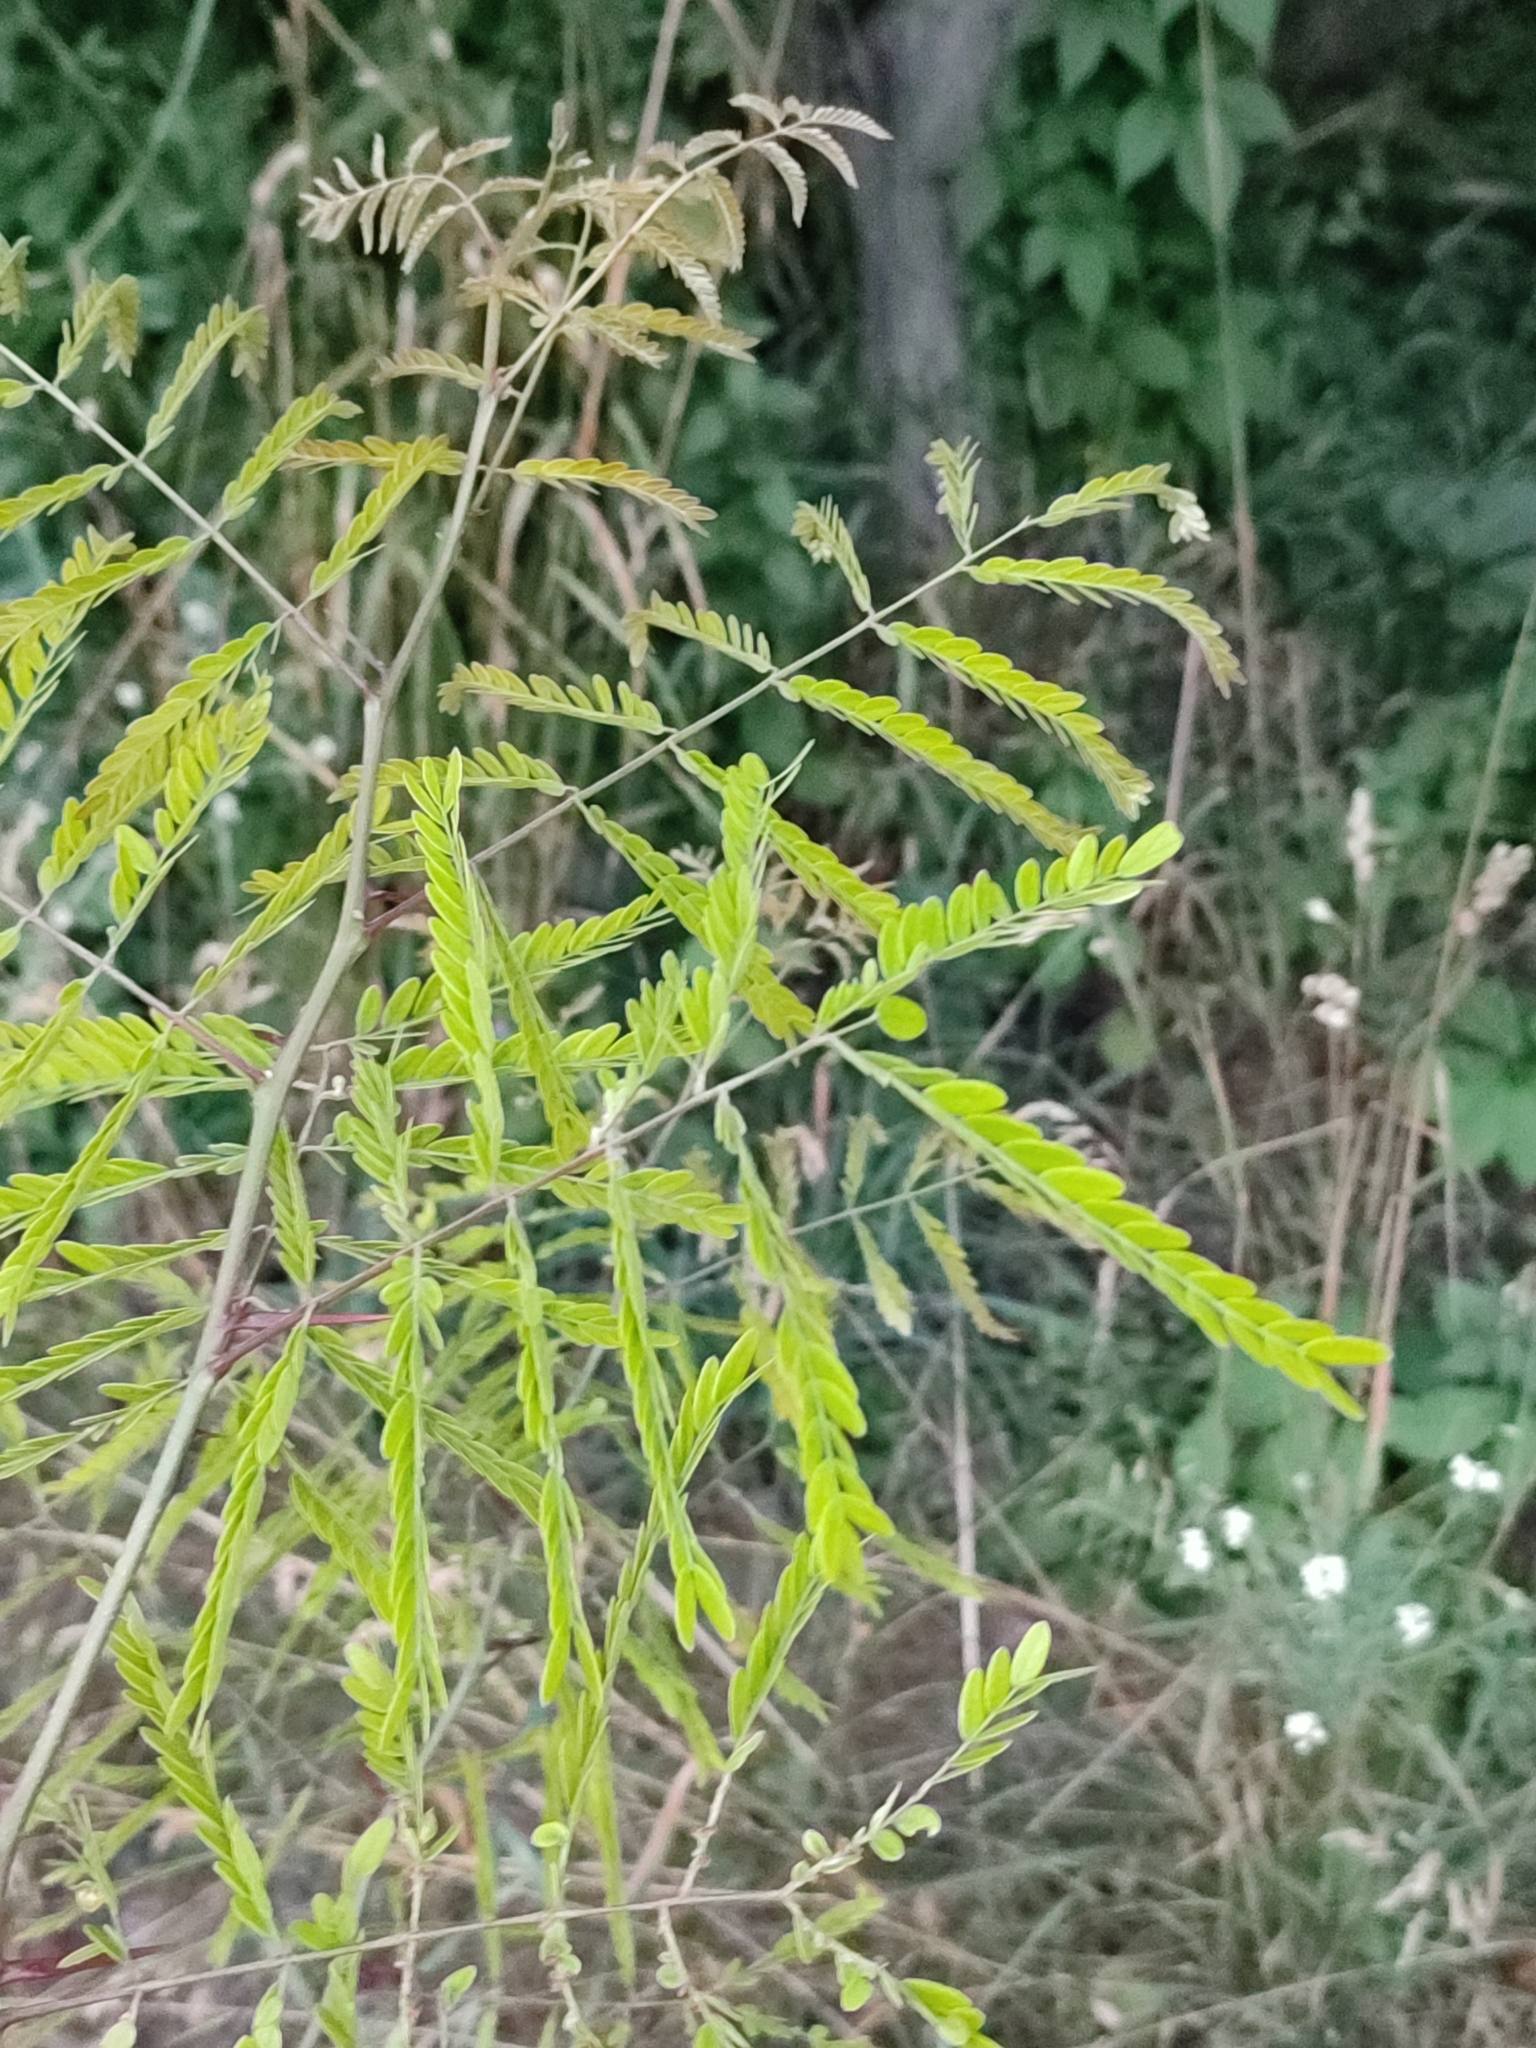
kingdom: Plantae
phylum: Tracheophyta
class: Magnoliopsida
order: Fabales
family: Fabaceae
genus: Gleditsia
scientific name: Gleditsia triacanthos
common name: Common honeylocust
